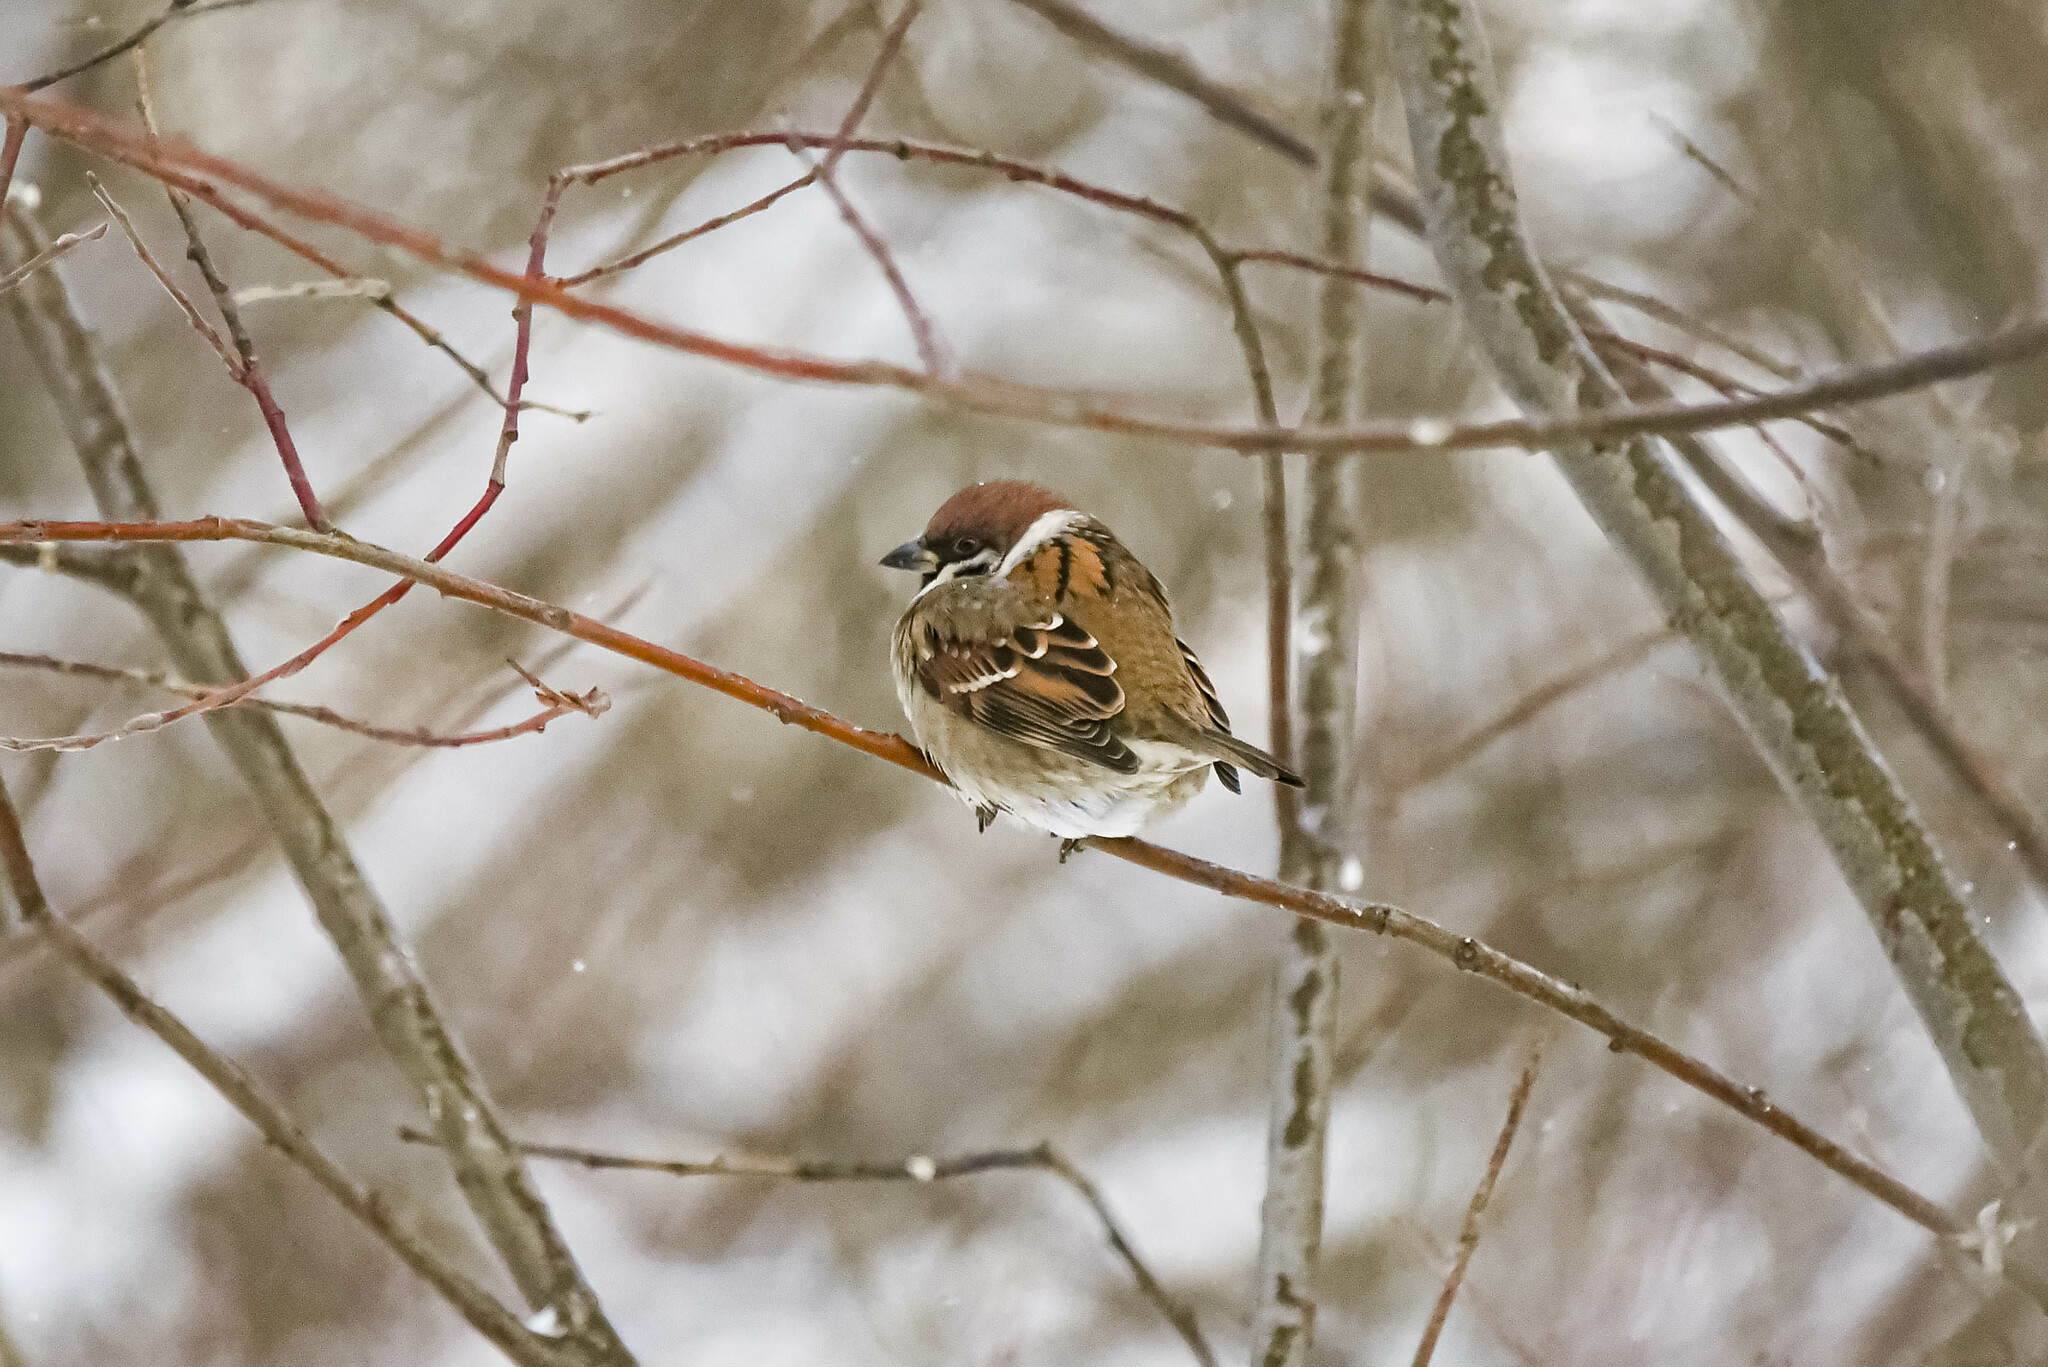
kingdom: Animalia
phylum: Chordata
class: Aves
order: Passeriformes
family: Passeridae
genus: Passer
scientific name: Passer montanus
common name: Eurasian tree sparrow
